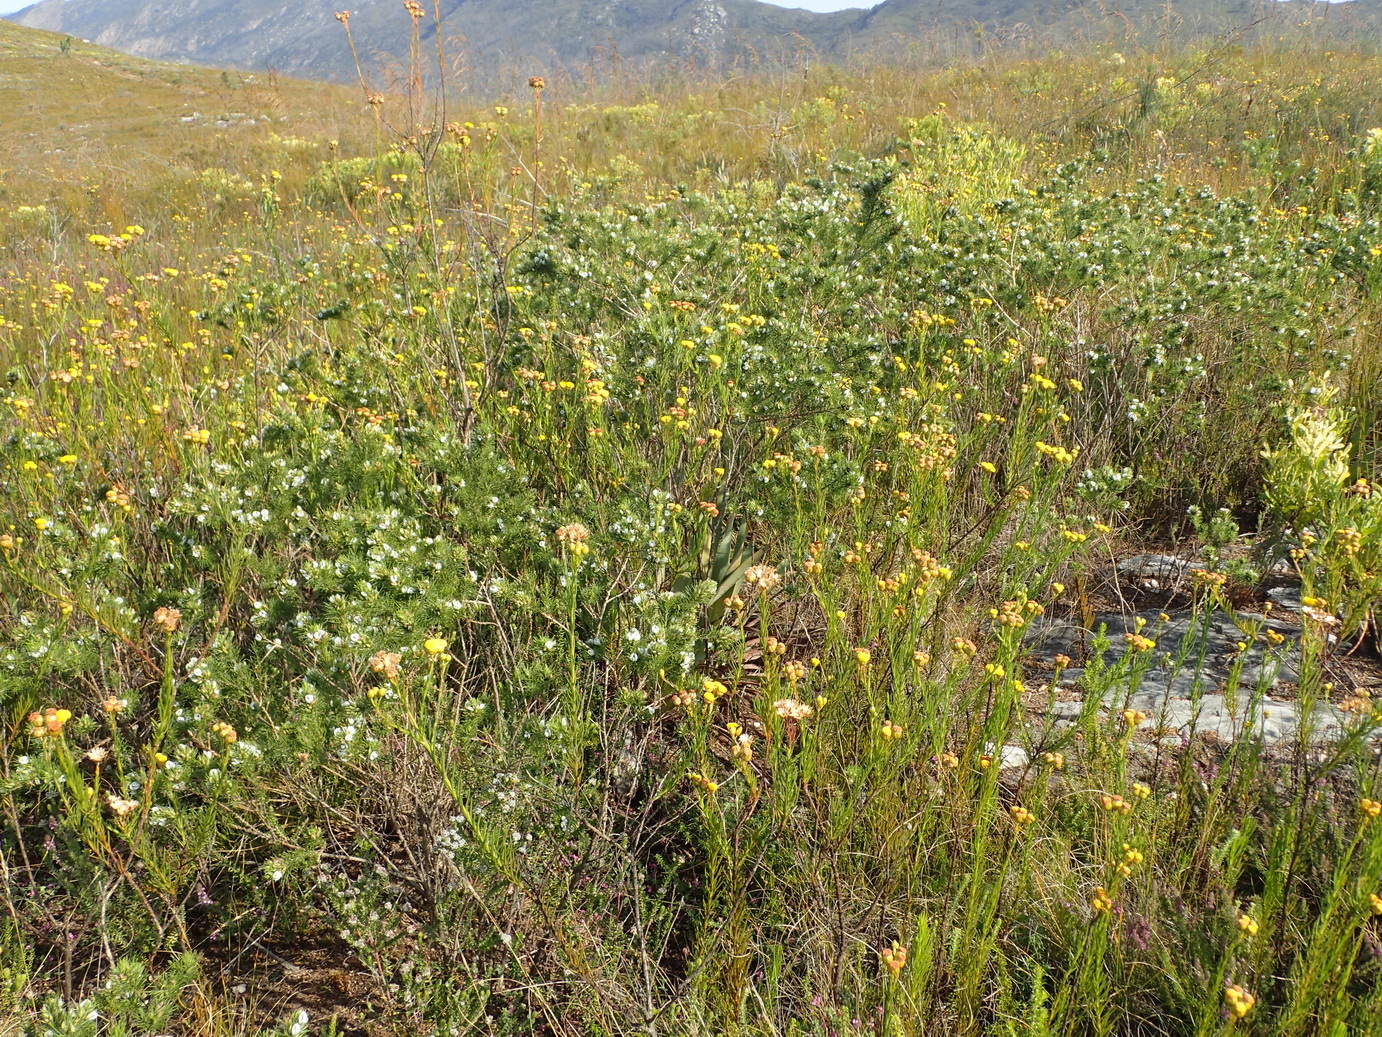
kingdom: Plantae
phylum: Tracheophyta
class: Magnoliopsida
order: Fabales
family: Fabaceae
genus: Psoralea
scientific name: Psoralea floccosa
